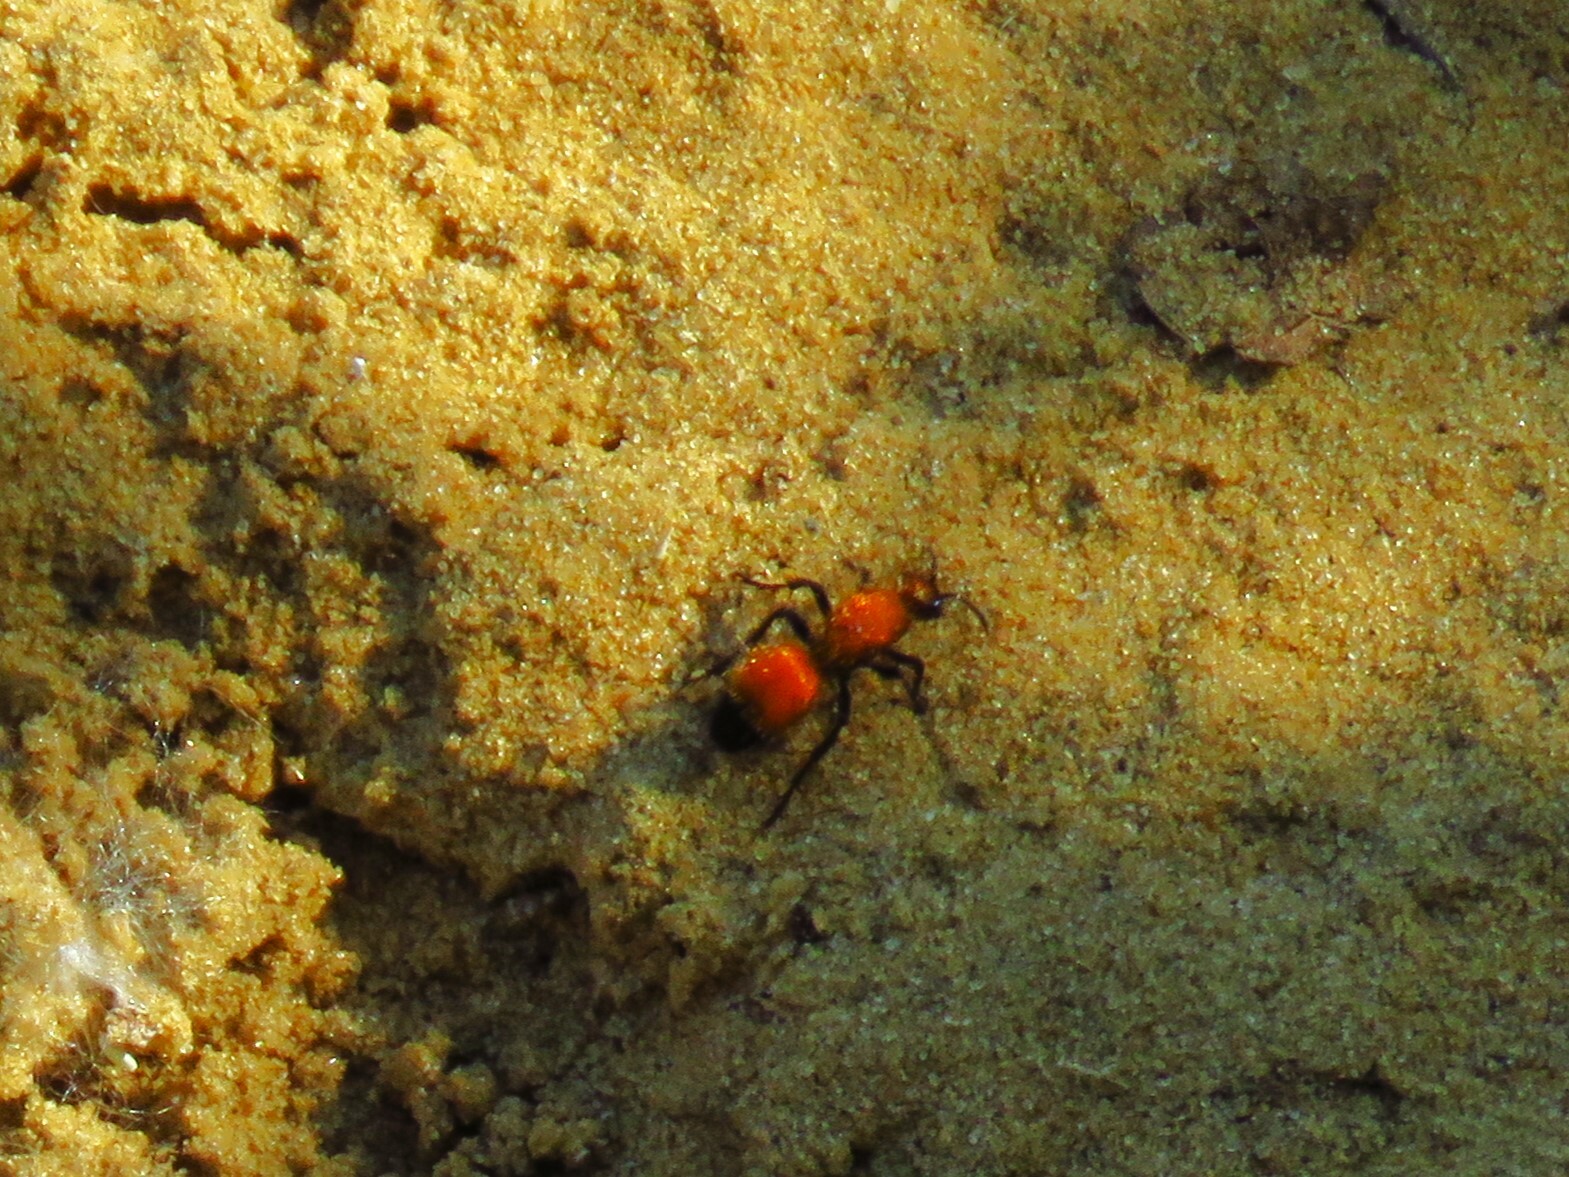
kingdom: Animalia
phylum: Arthropoda
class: Insecta
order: Hymenoptera
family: Mutillidae
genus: Dasymutilla
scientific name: Dasymutilla
